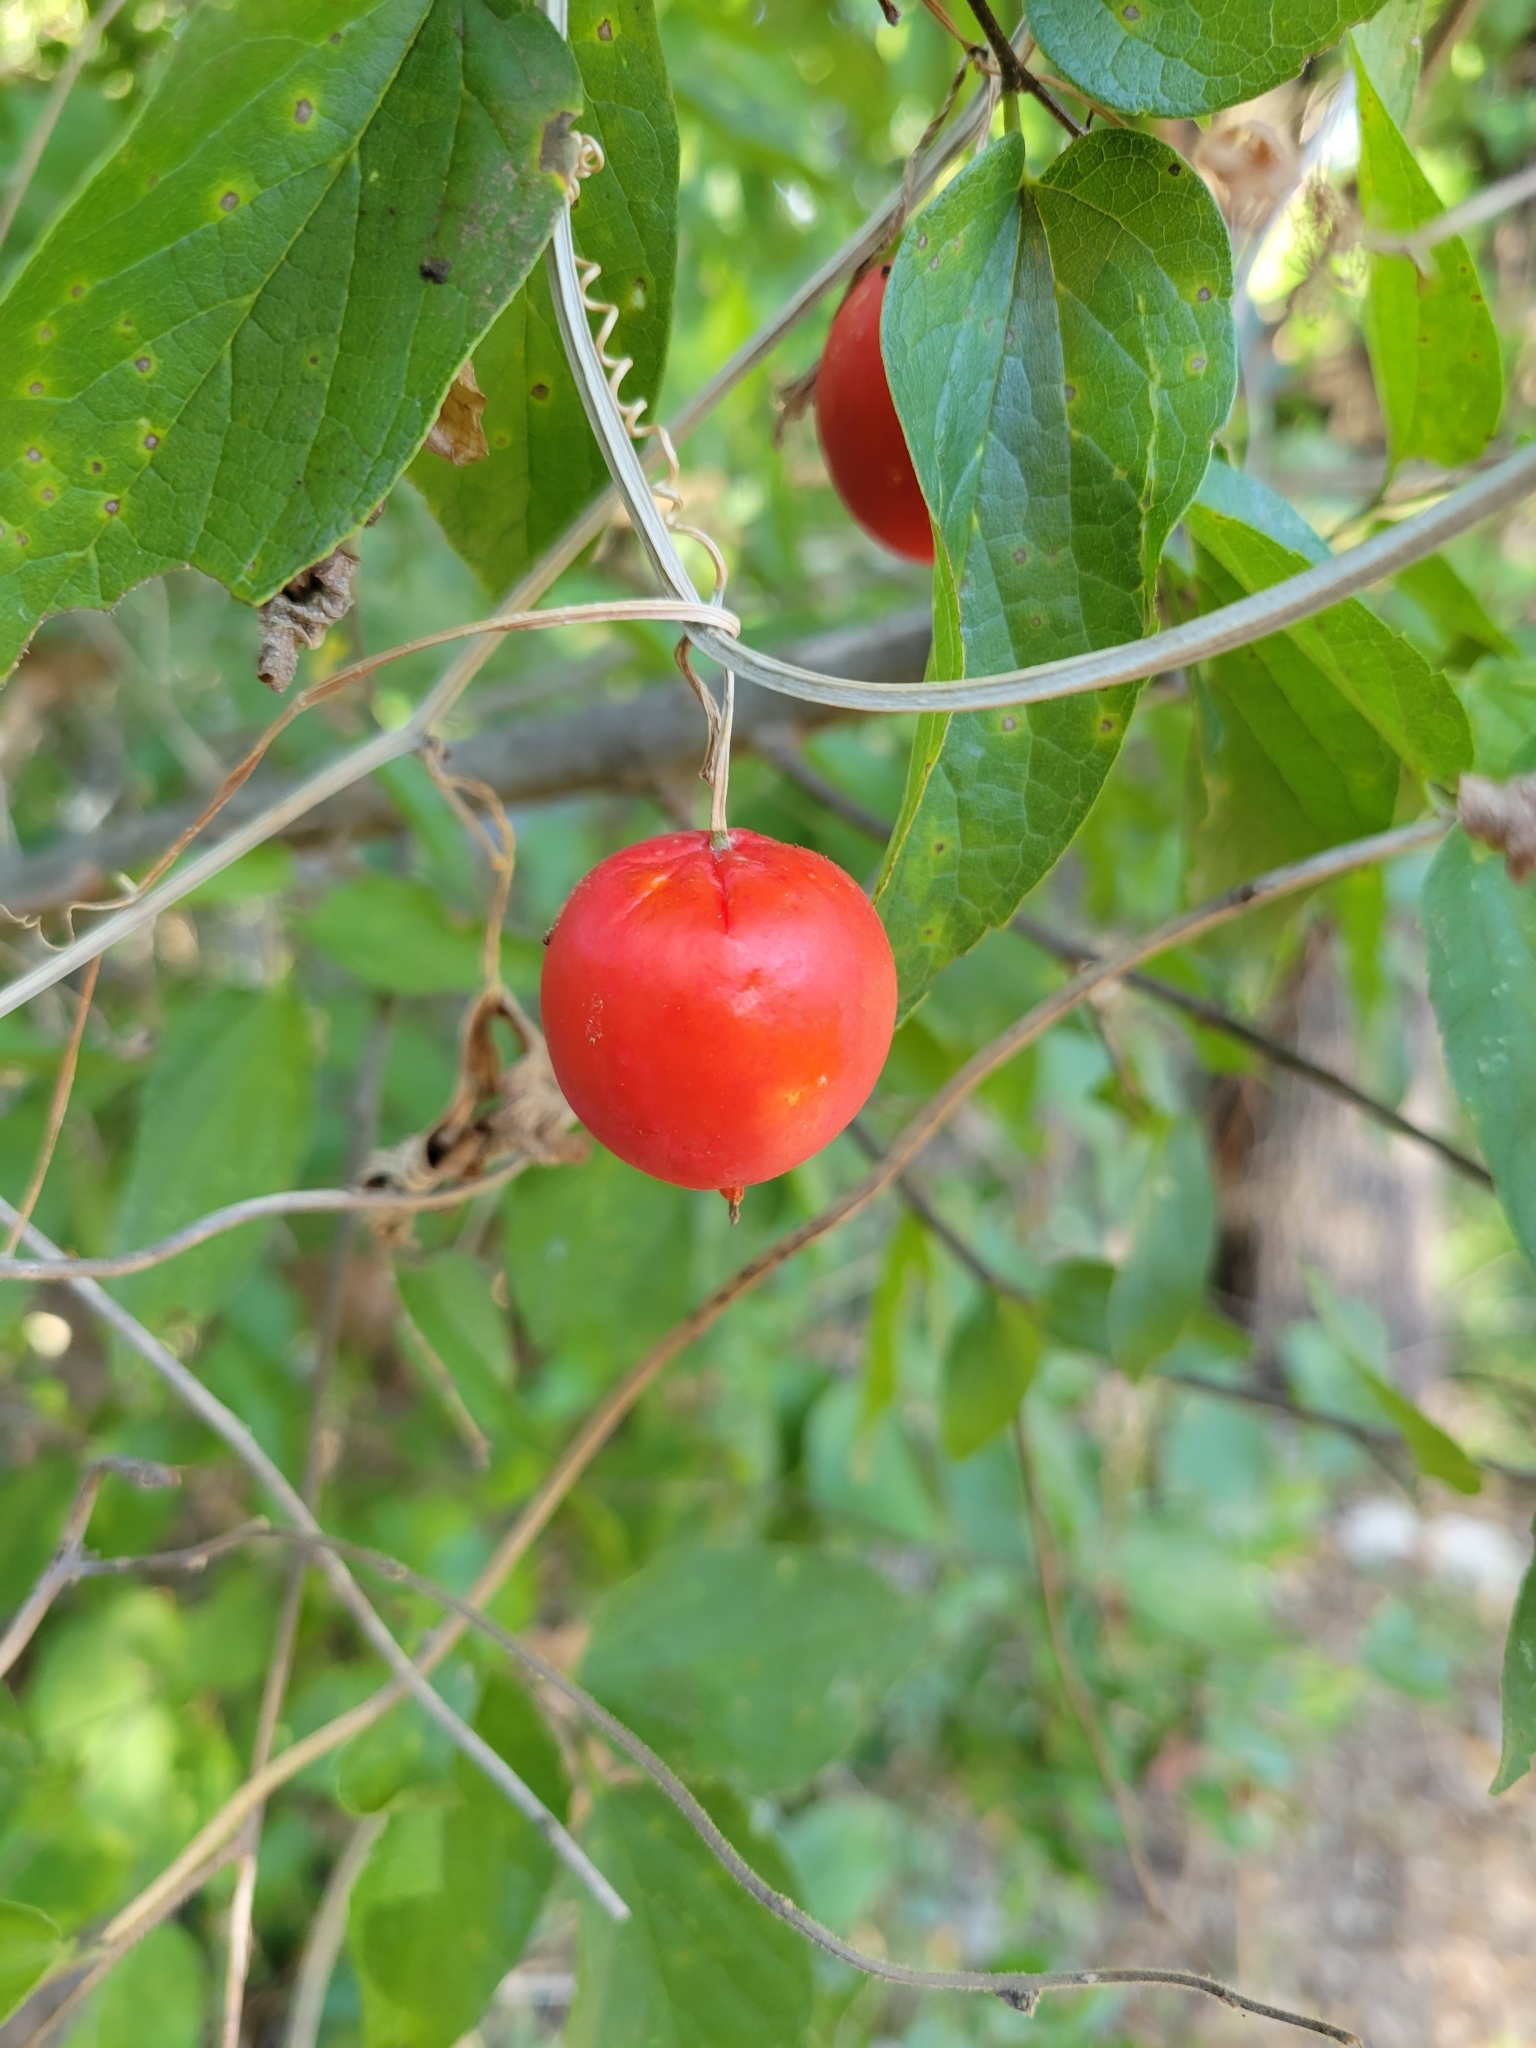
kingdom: Plantae
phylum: Tracheophyta
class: Magnoliopsida
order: Cucurbitales
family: Cucurbitaceae
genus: Ibervillea
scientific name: Ibervillea lindheimeri
